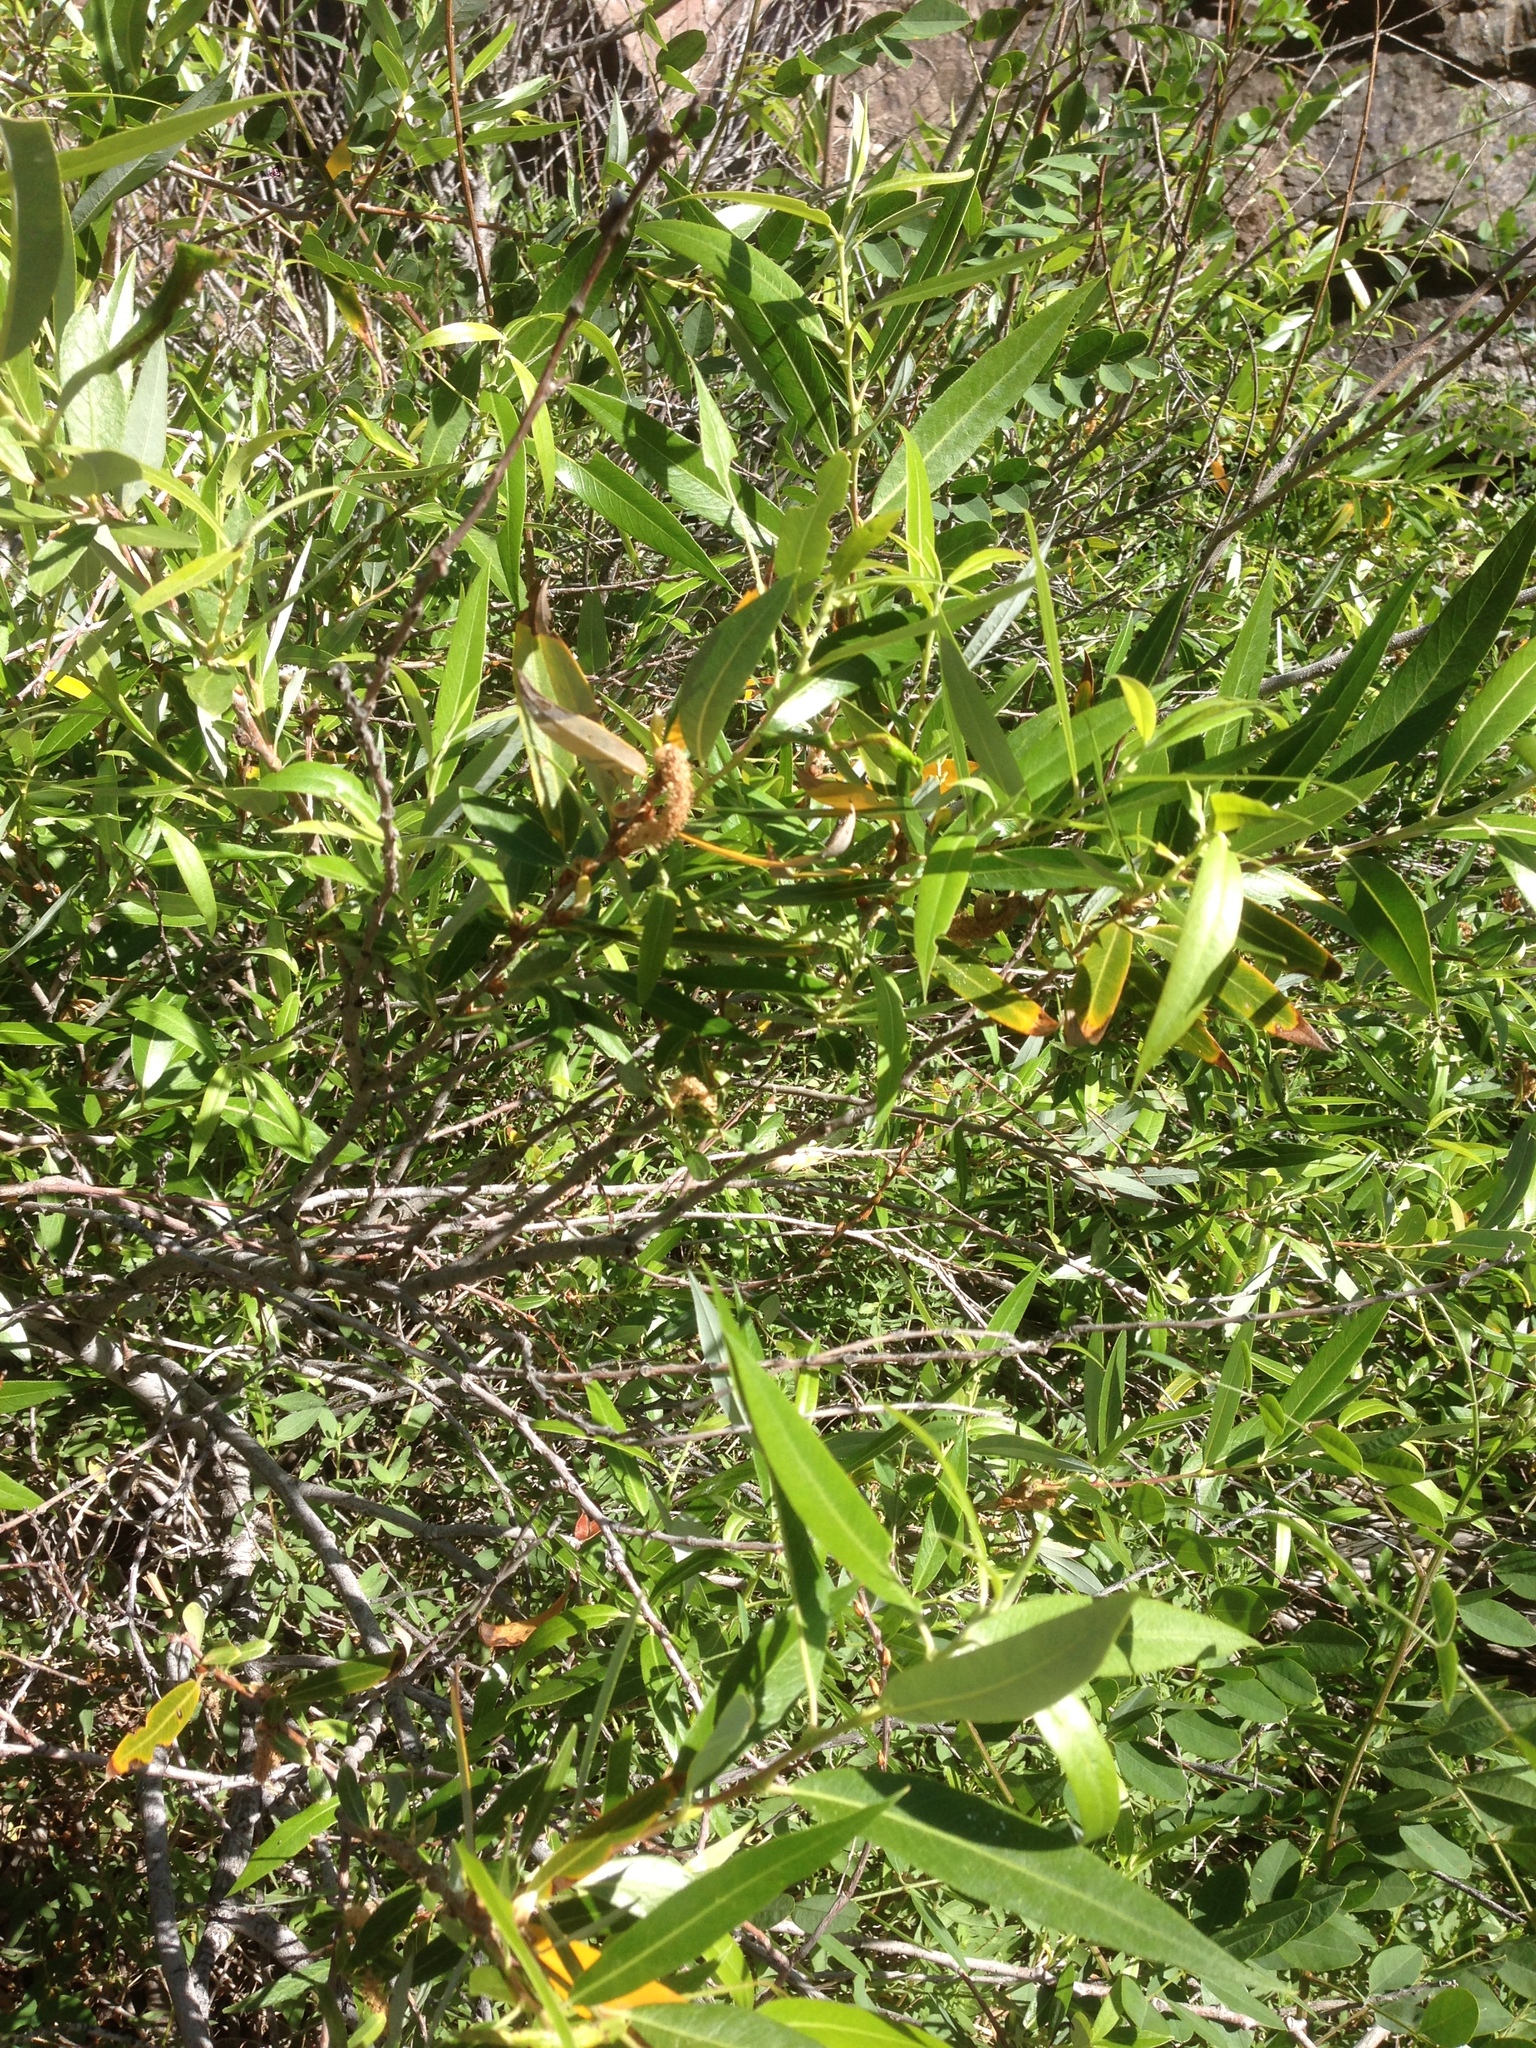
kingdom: Plantae
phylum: Tracheophyta
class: Magnoliopsida
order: Malpighiales
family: Salicaceae
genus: Salix
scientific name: Salix laevigata
